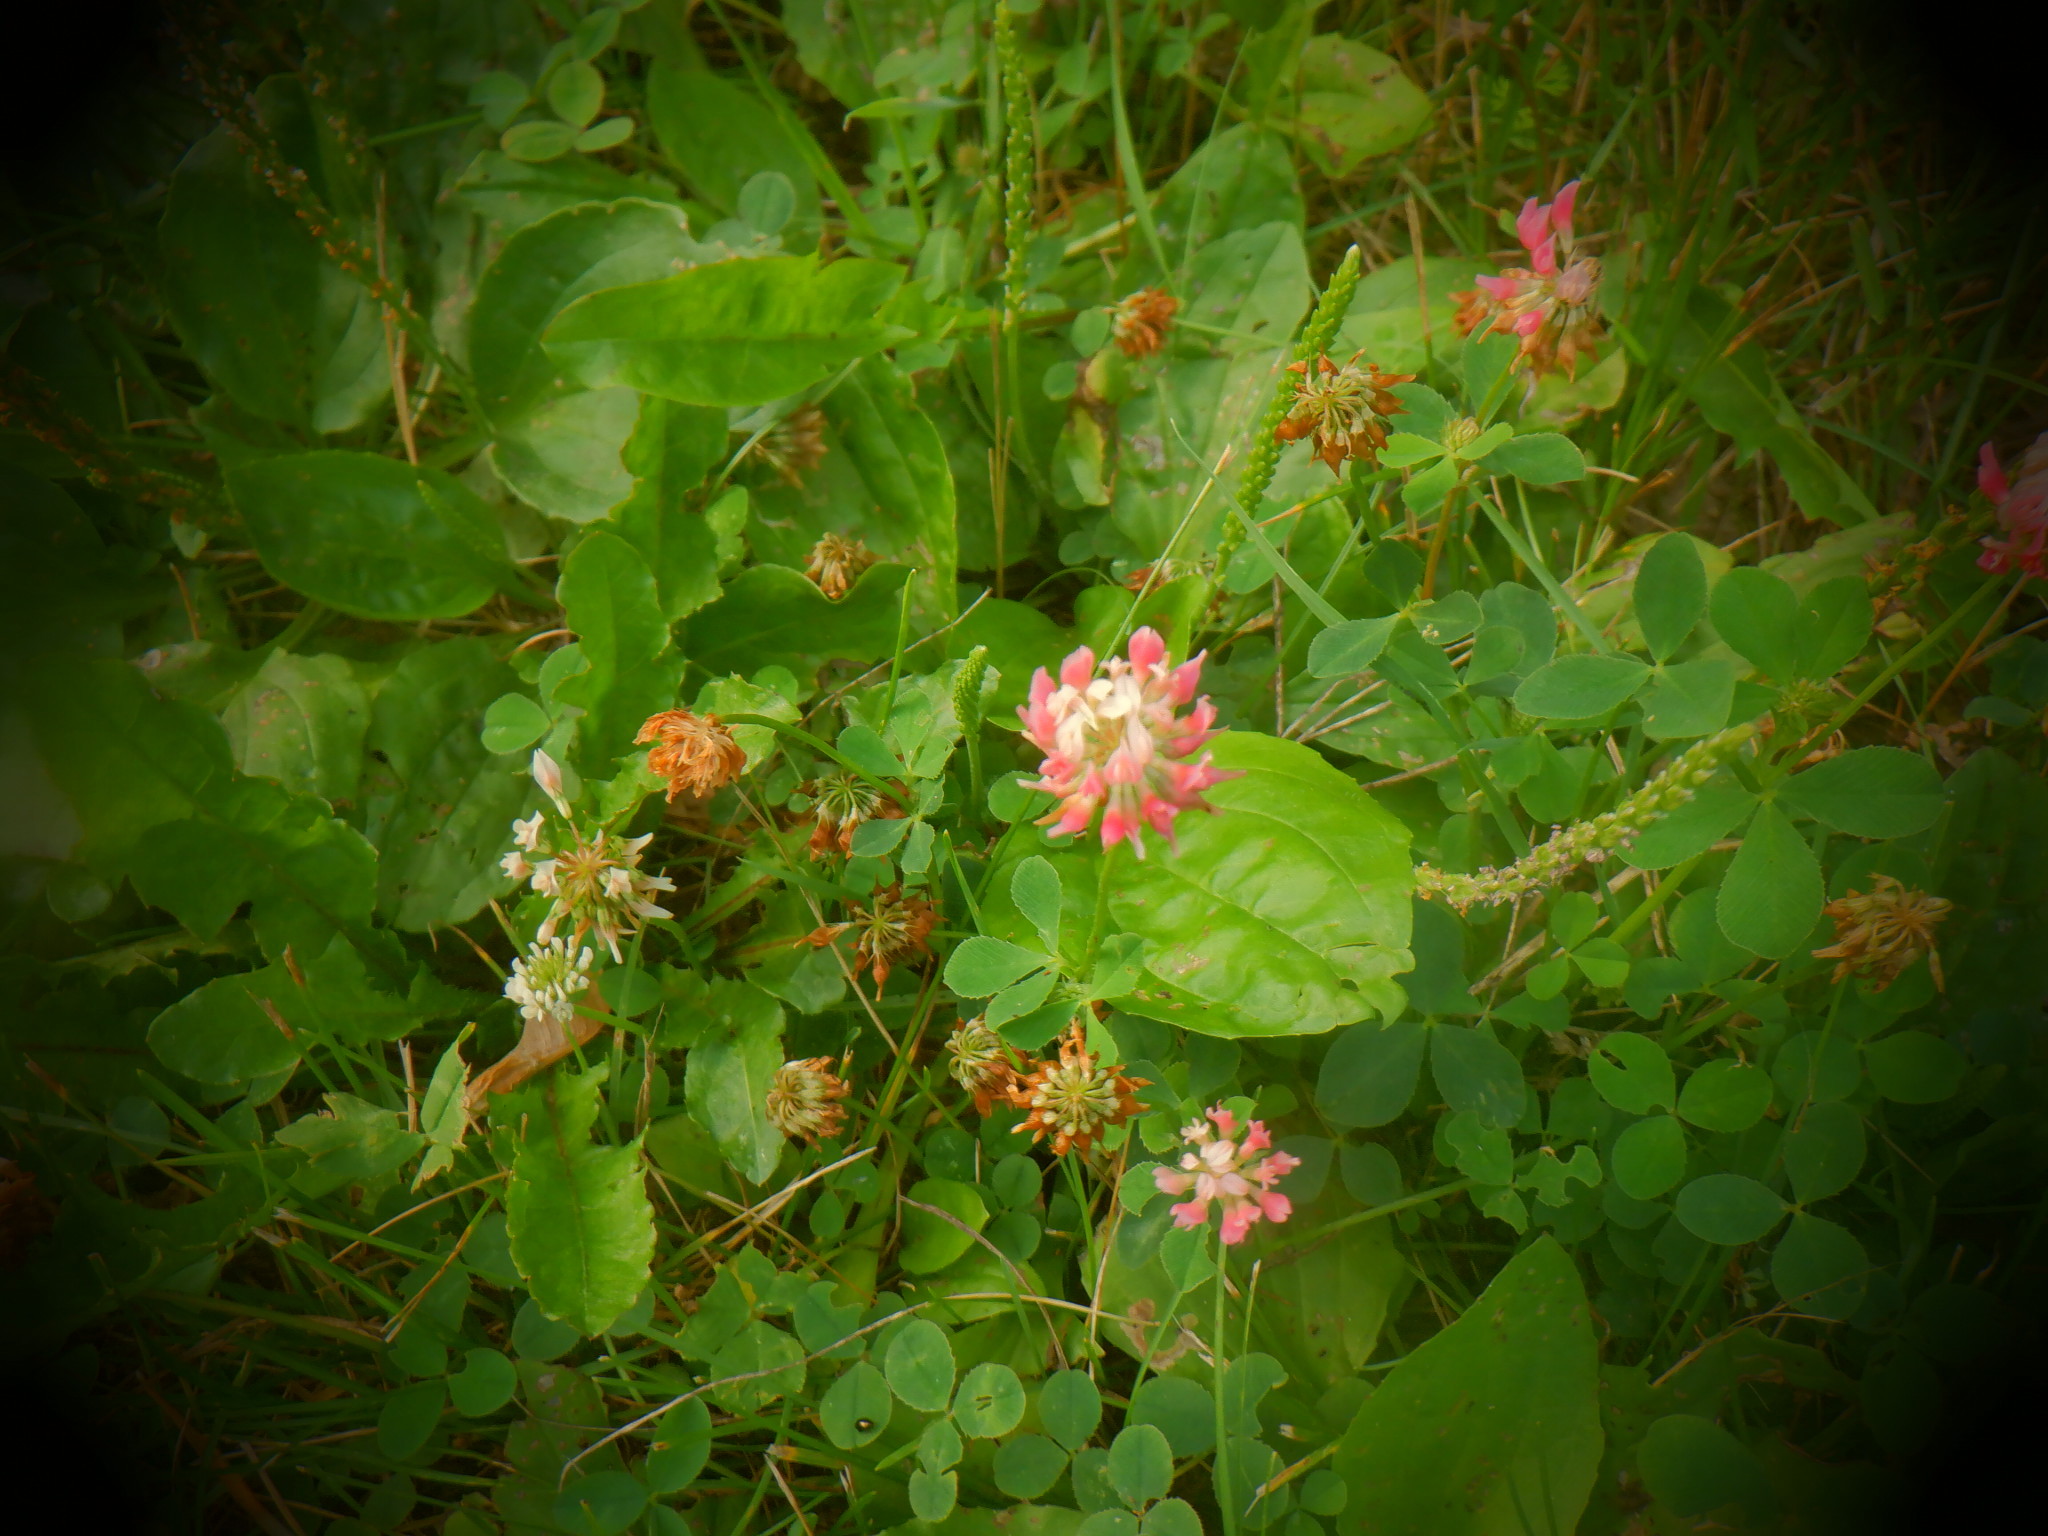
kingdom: Plantae
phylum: Tracheophyta
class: Magnoliopsida
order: Fabales
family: Fabaceae
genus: Trifolium
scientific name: Trifolium hybridum
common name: Alsike clover
